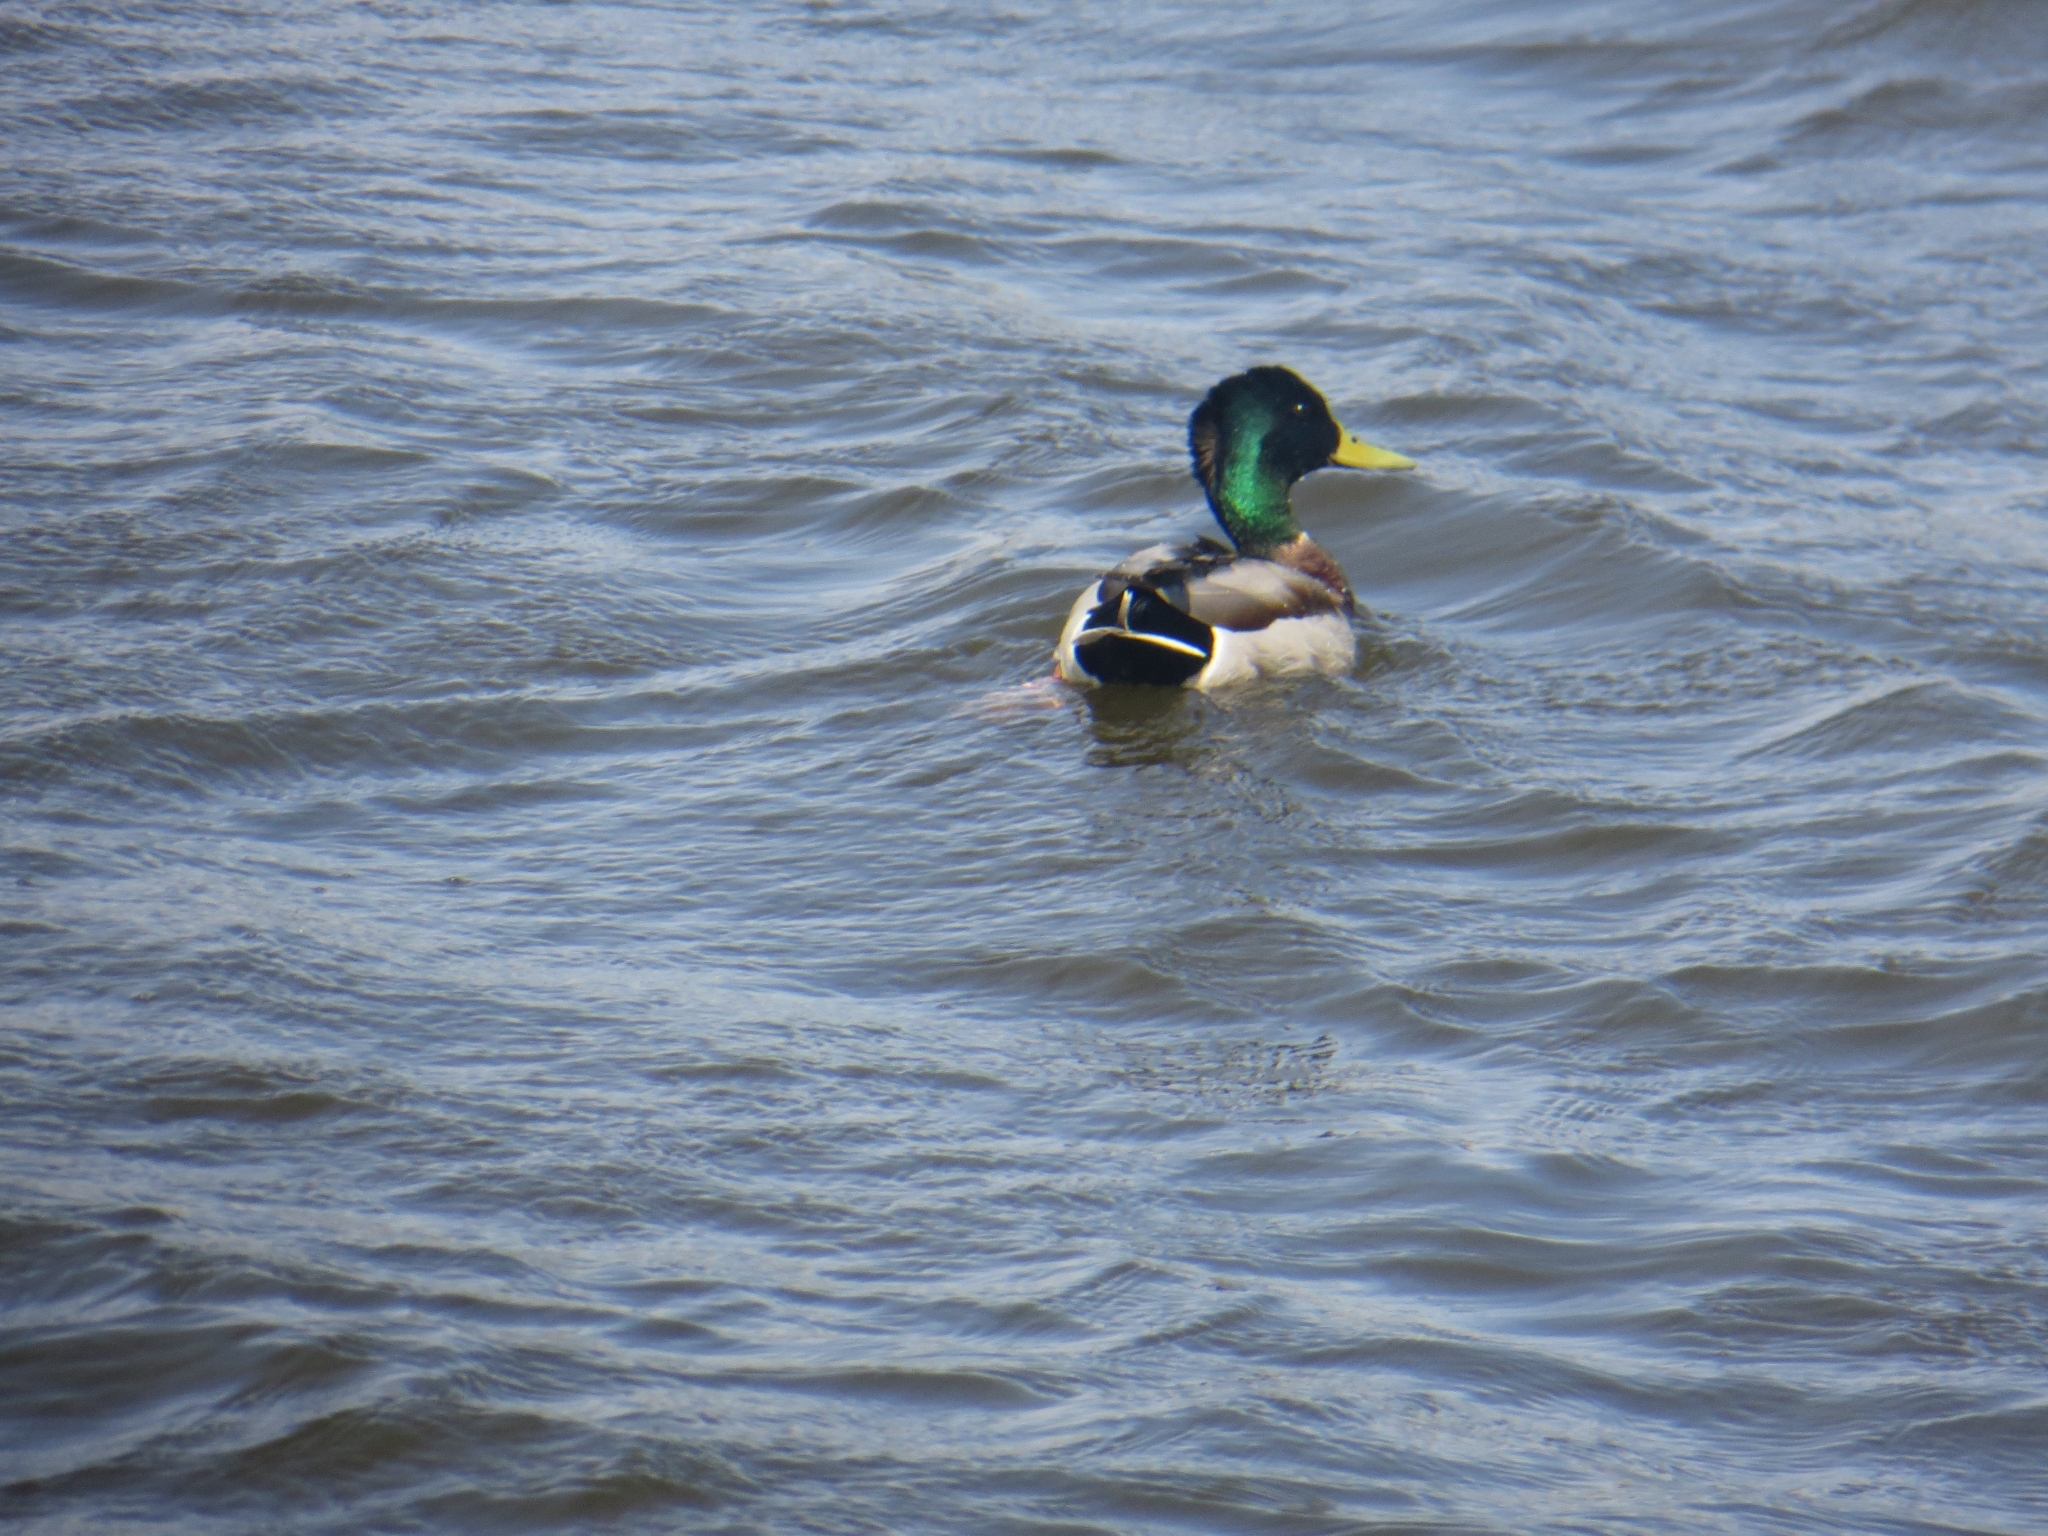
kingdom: Animalia
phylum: Chordata
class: Aves
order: Anseriformes
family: Anatidae
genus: Anas
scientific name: Anas platyrhynchos
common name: Mallard
